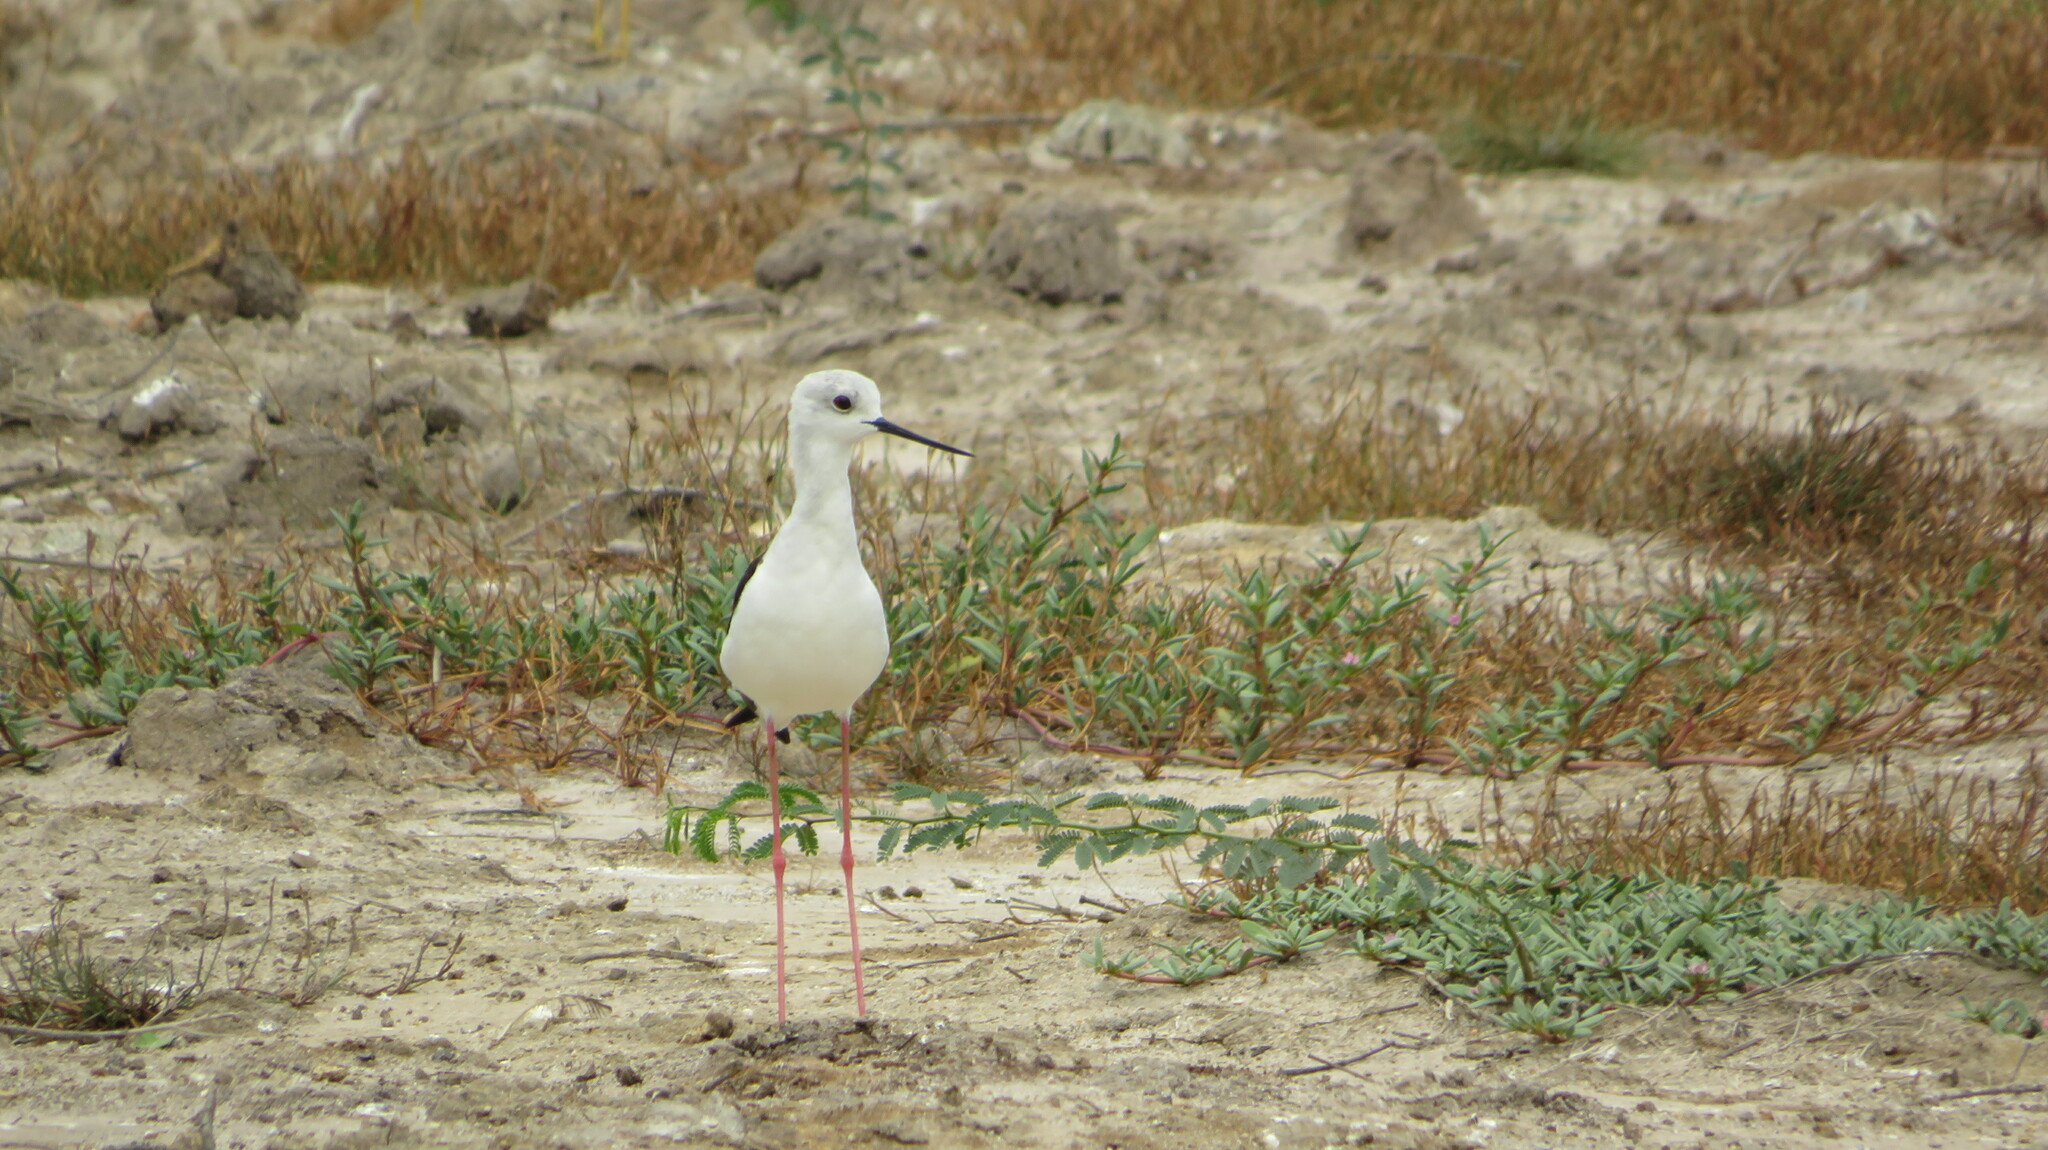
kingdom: Animalia
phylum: Chordata
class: Aves
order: Charadriiformes
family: Recurvirostridae
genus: Himantopus
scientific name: Himantopus himantopus
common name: Black-winged stilt
